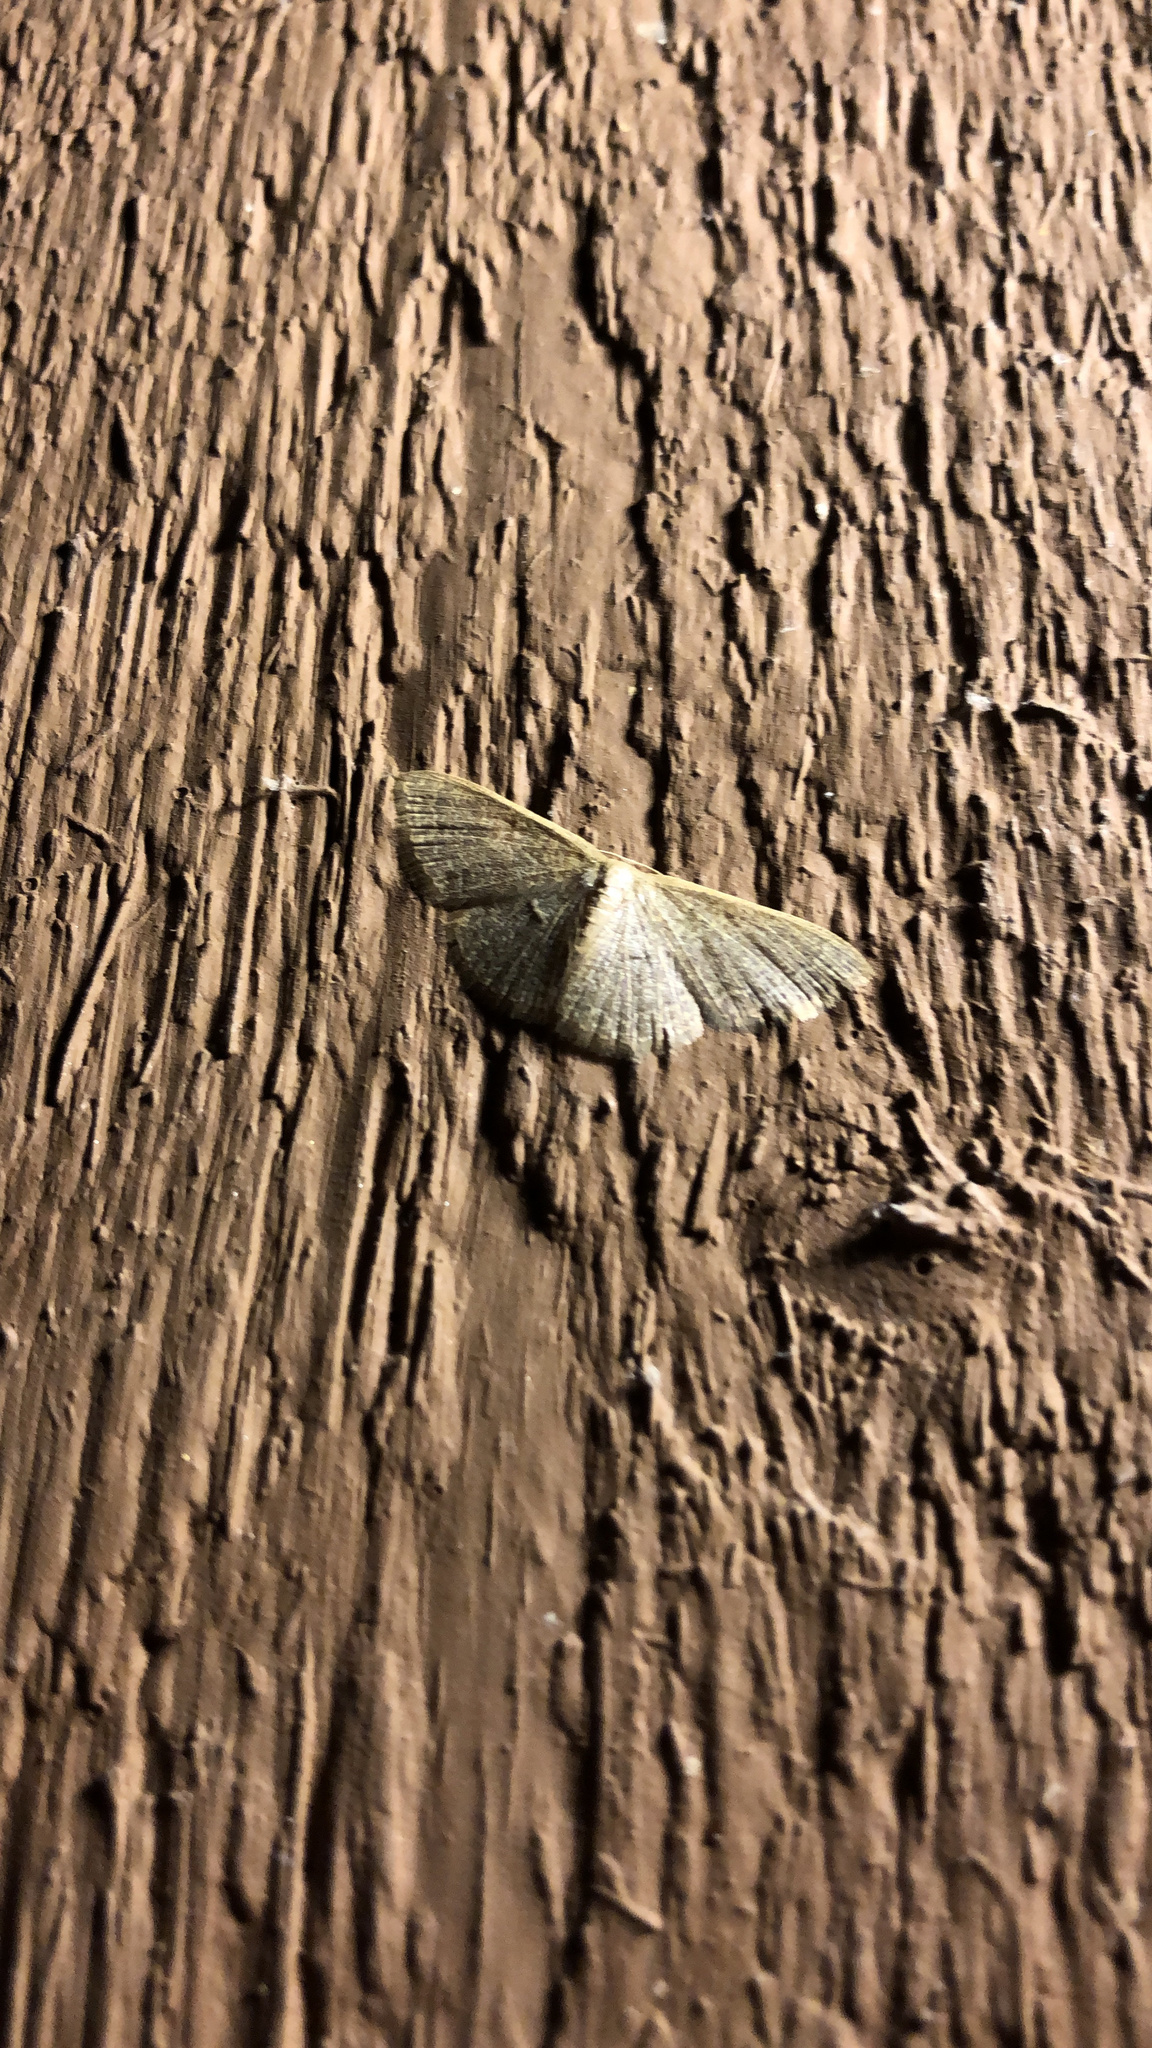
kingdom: Animalia
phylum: Arthropoda
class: Insecta
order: Lepidoptera
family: Geometridae
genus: Pleuroprucha
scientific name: Pleuroprucha insulsaria
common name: Common tan wave
